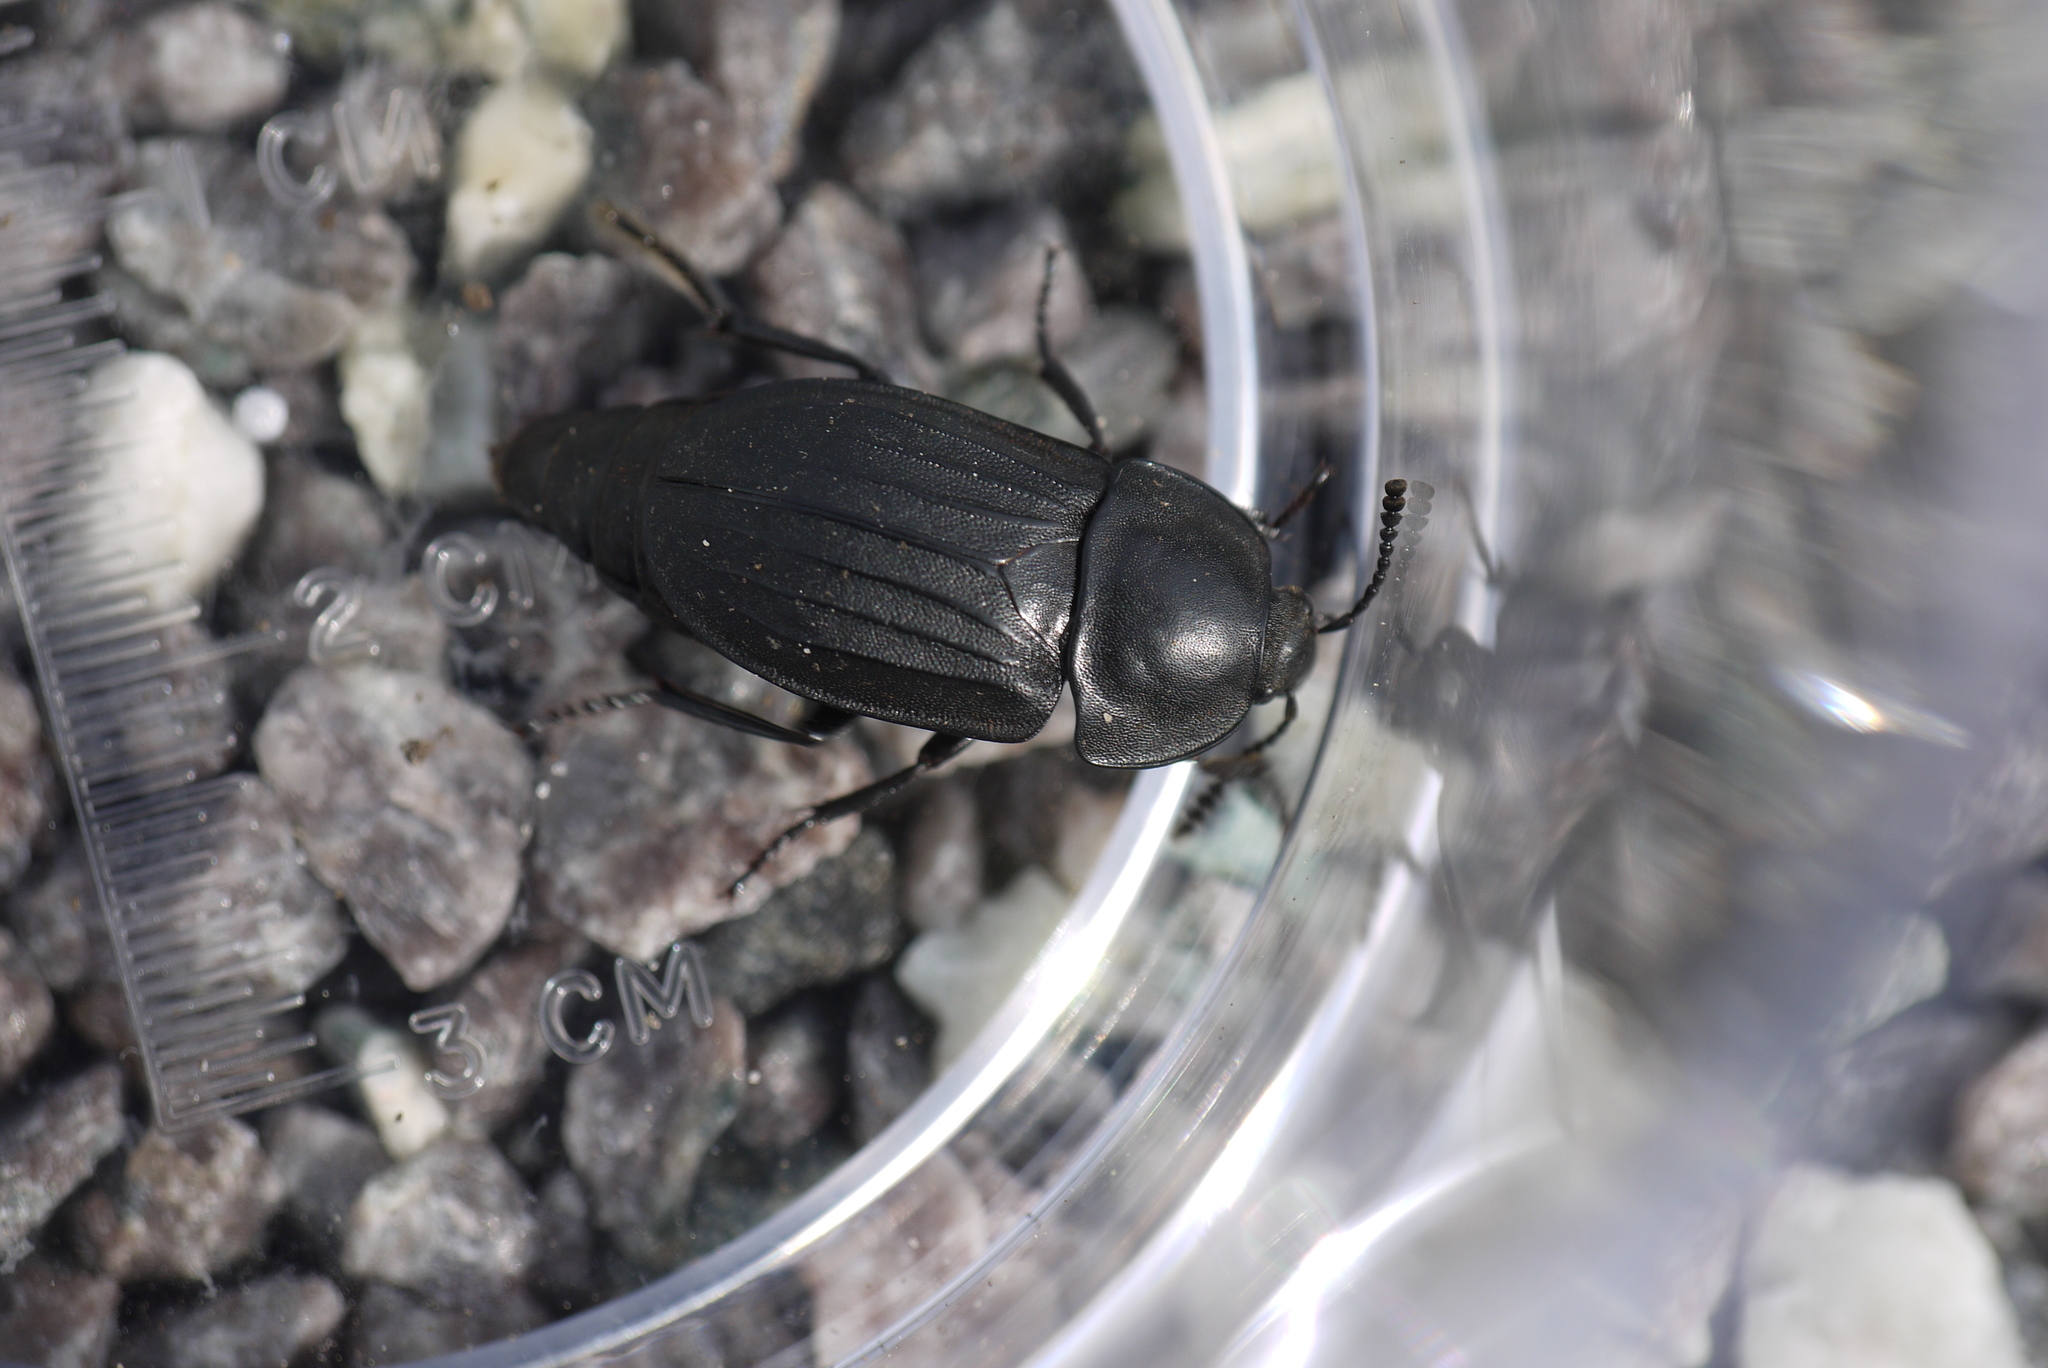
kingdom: Animalia
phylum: Arthropoda
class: Insecta
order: Coleoptera
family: Staphylinidae
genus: Silpha
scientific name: Silpha tristis
